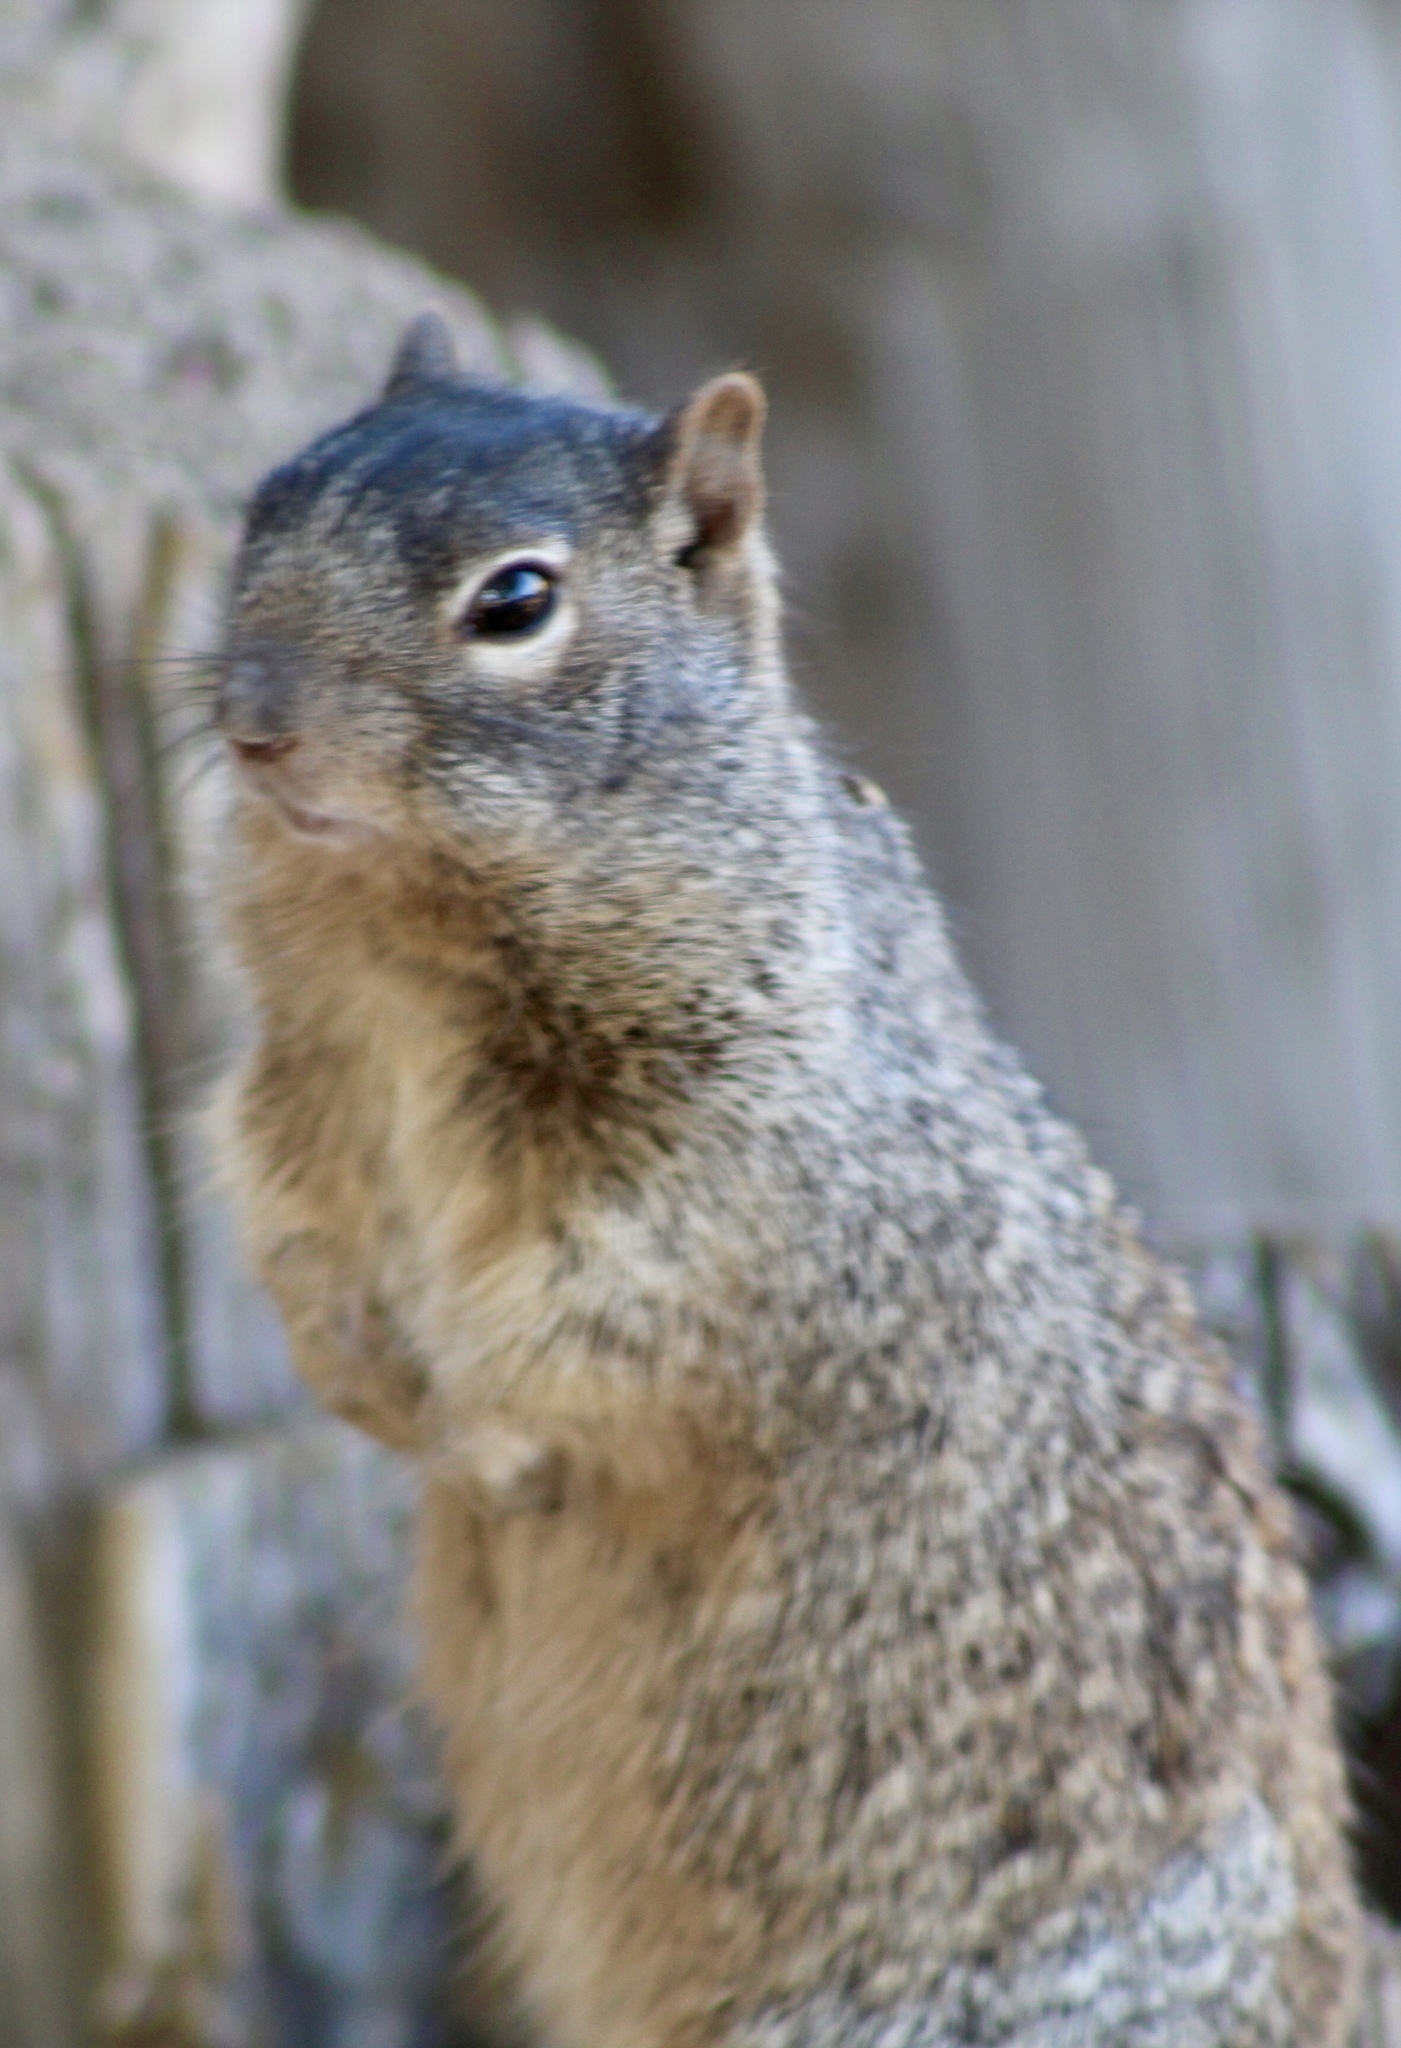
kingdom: Animalia
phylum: Chordata
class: Mammalia
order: Rodentia
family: Sciuridae
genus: Otospermophilus
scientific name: Otospermophilus variegatus
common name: Rock squirrel
